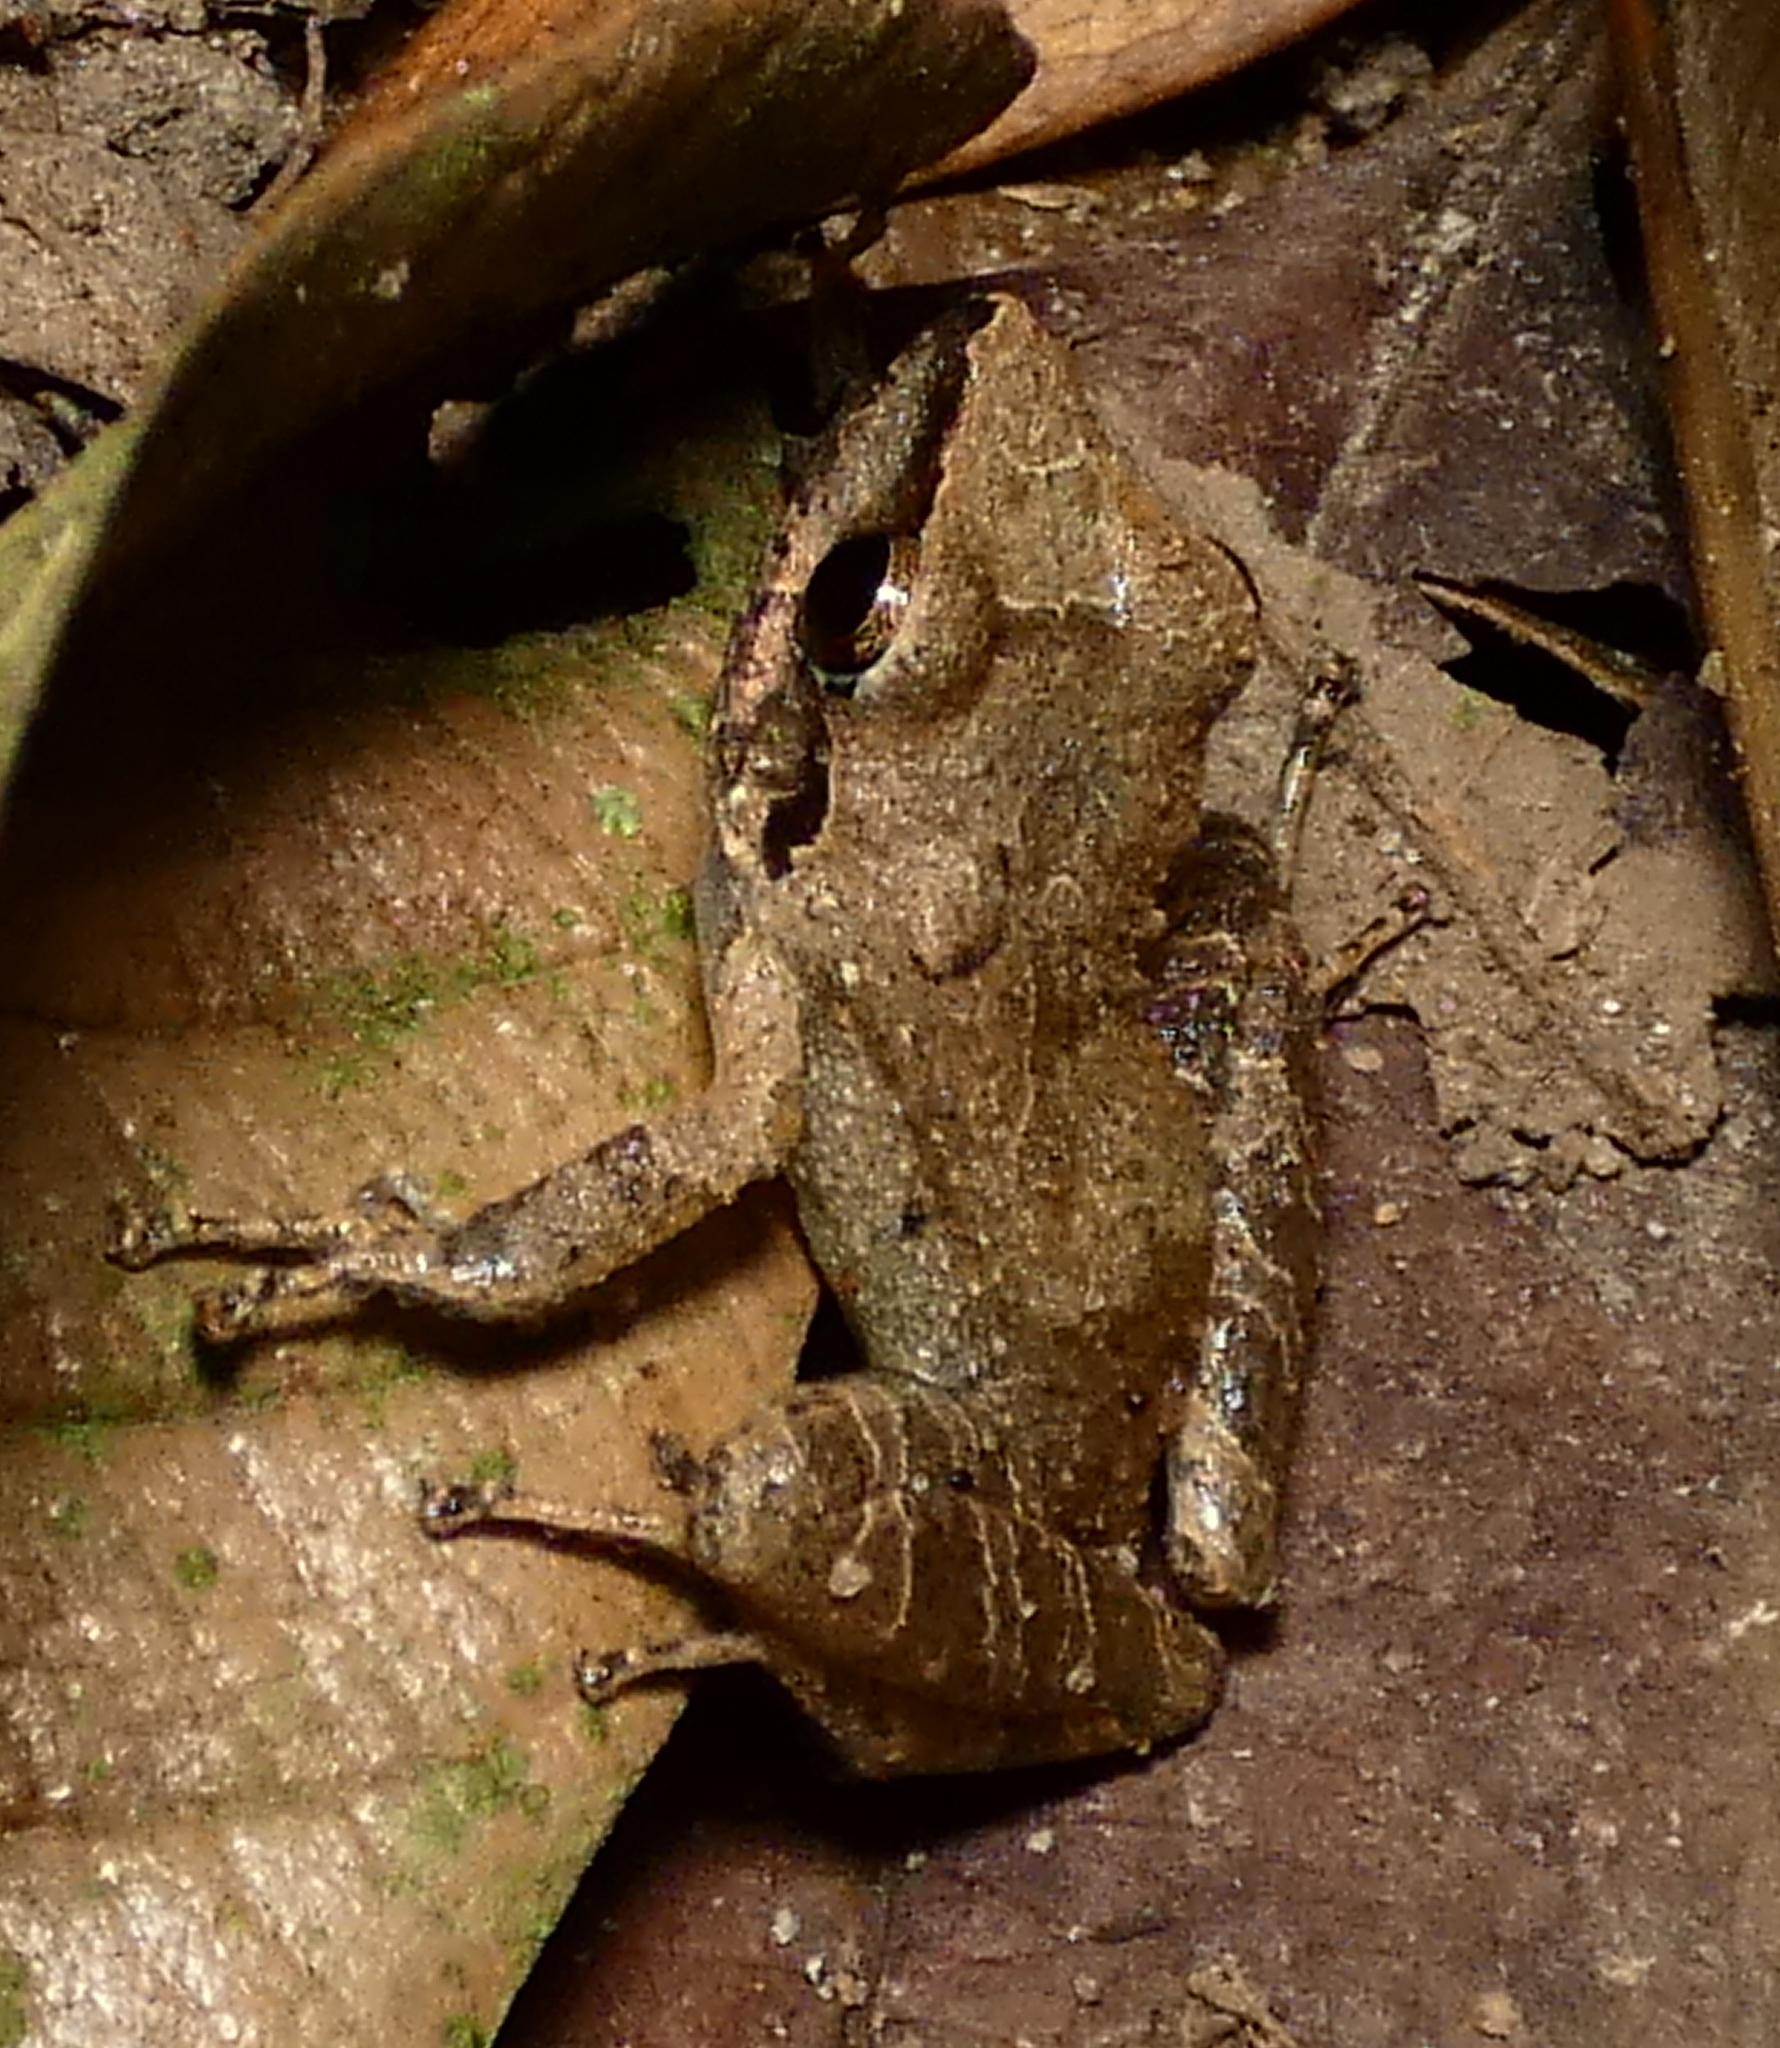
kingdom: Animalia
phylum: Chordata
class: Amphibia
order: Anura
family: Craugastoridae
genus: Pristimantis
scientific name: Pristimantis ramagii
